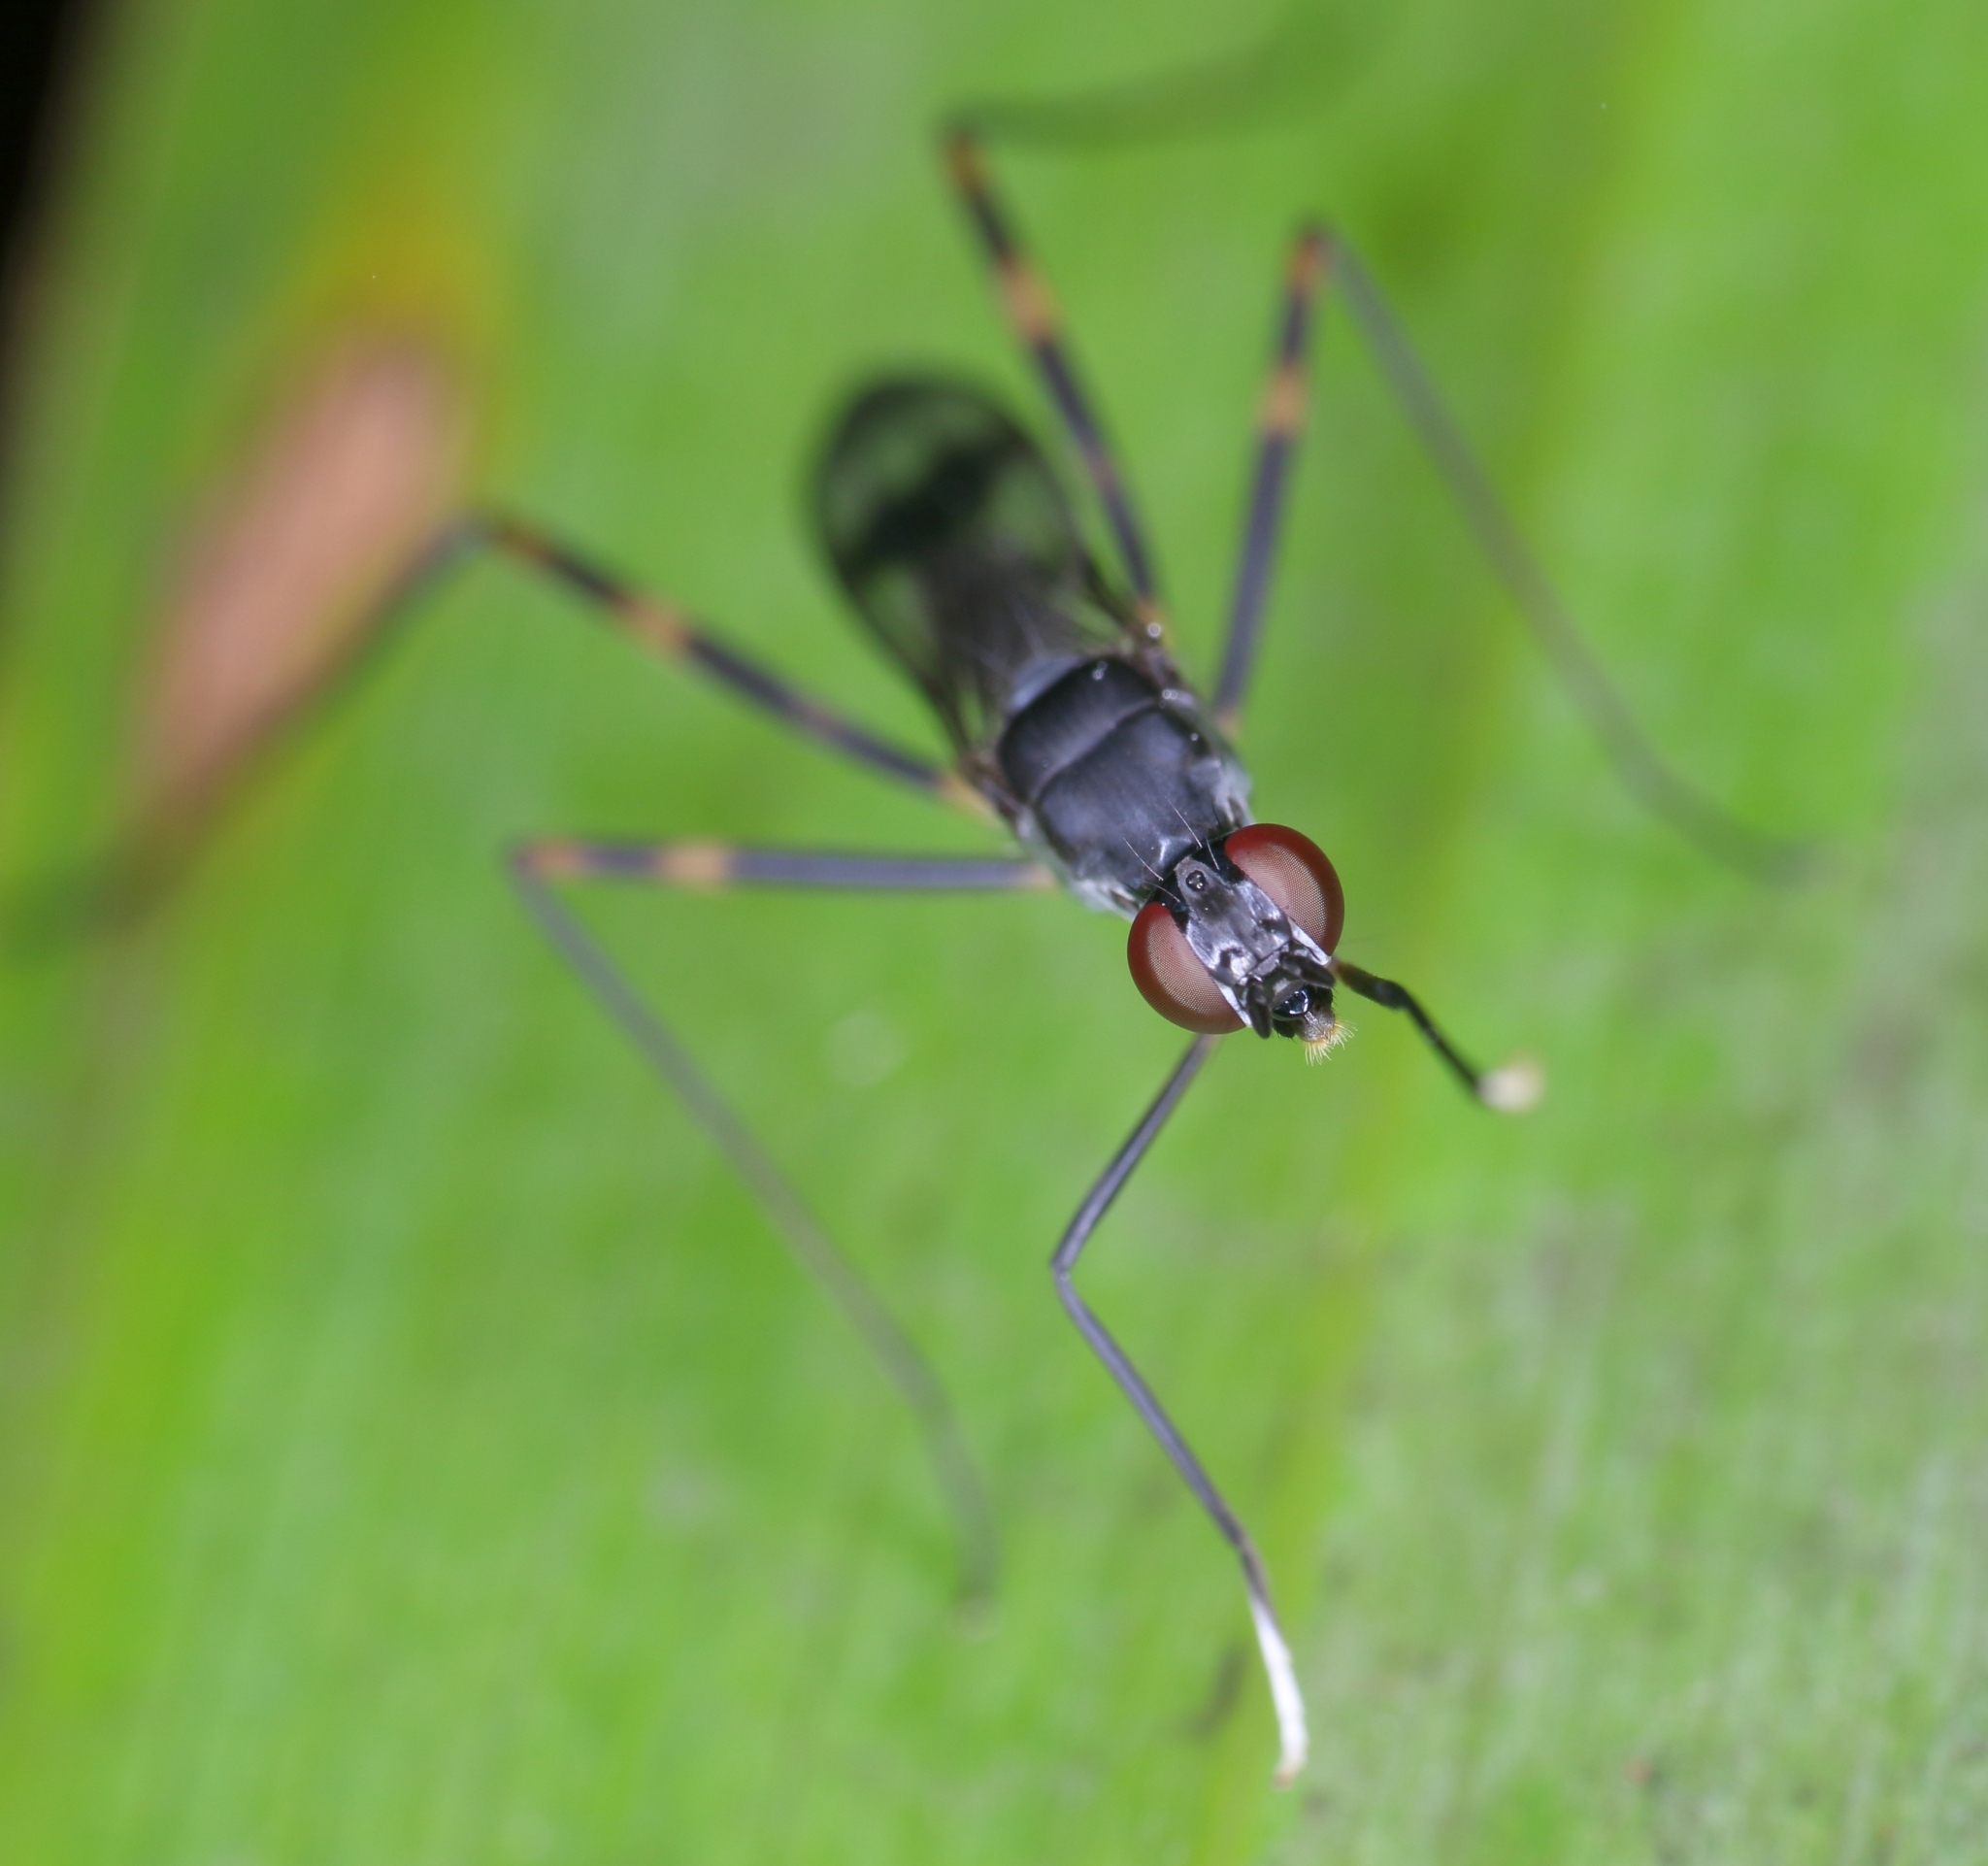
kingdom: Animalia
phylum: Arthropoda
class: Insecta
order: Diptera
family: Micropezidae
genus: Hybobata
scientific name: Hybobata
